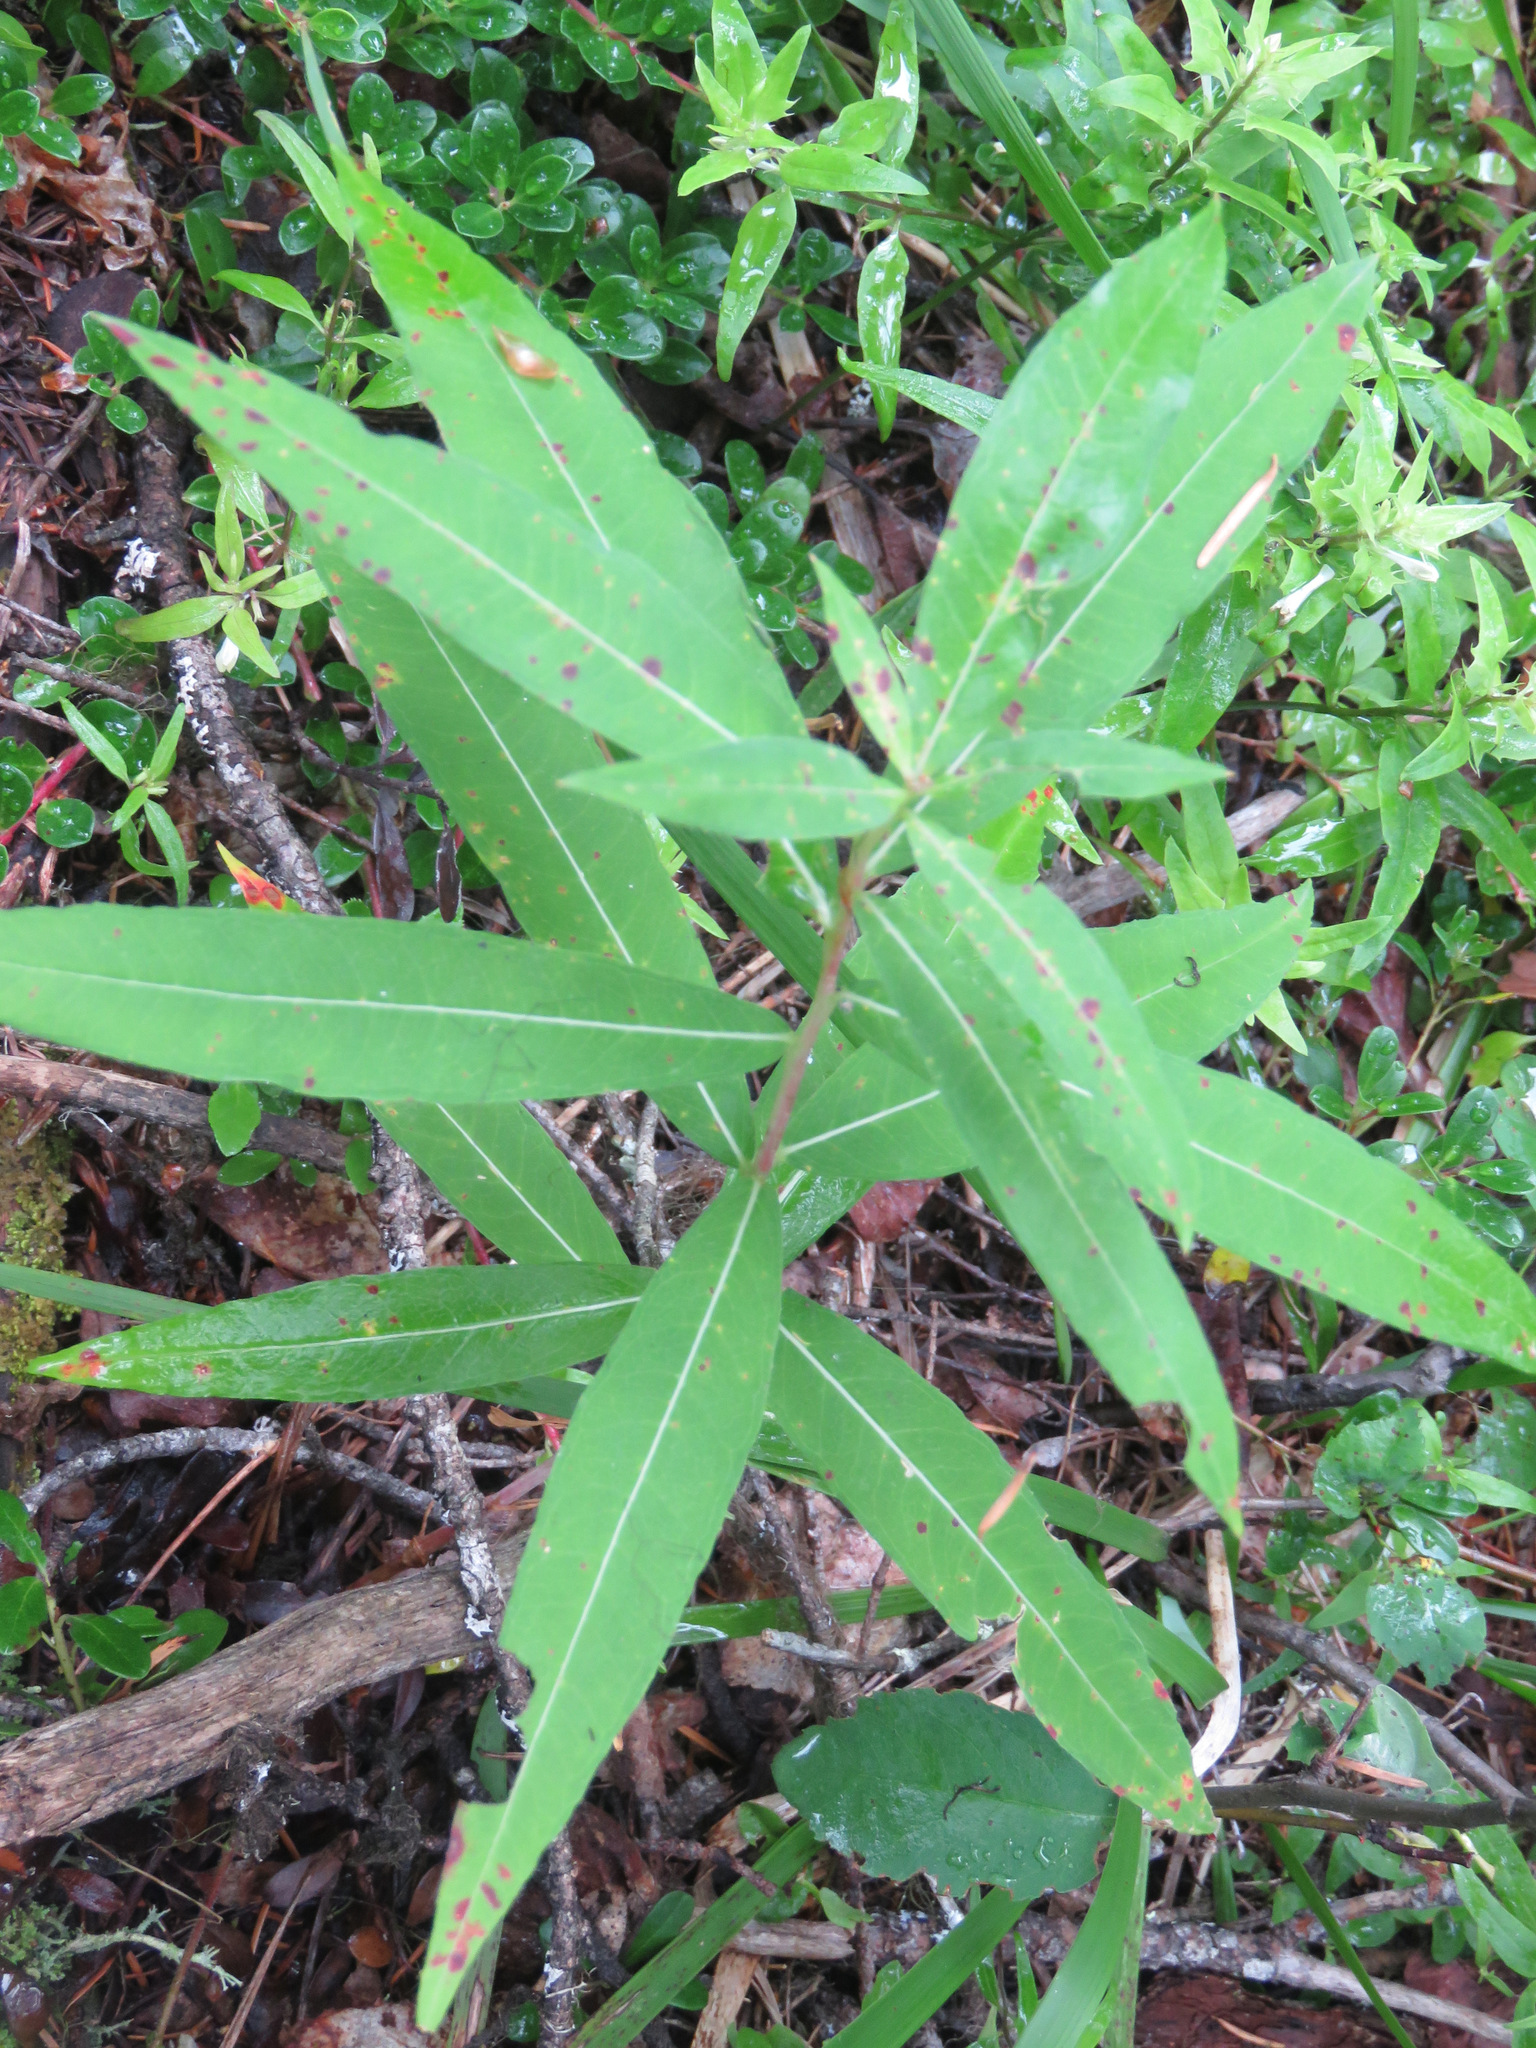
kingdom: Plantae
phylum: Tracheophyta
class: Magnoliopsida
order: Myrtales
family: Onagraceae
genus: Chamaenerion
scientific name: Chamaenerion angustifolium
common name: Fireweed
